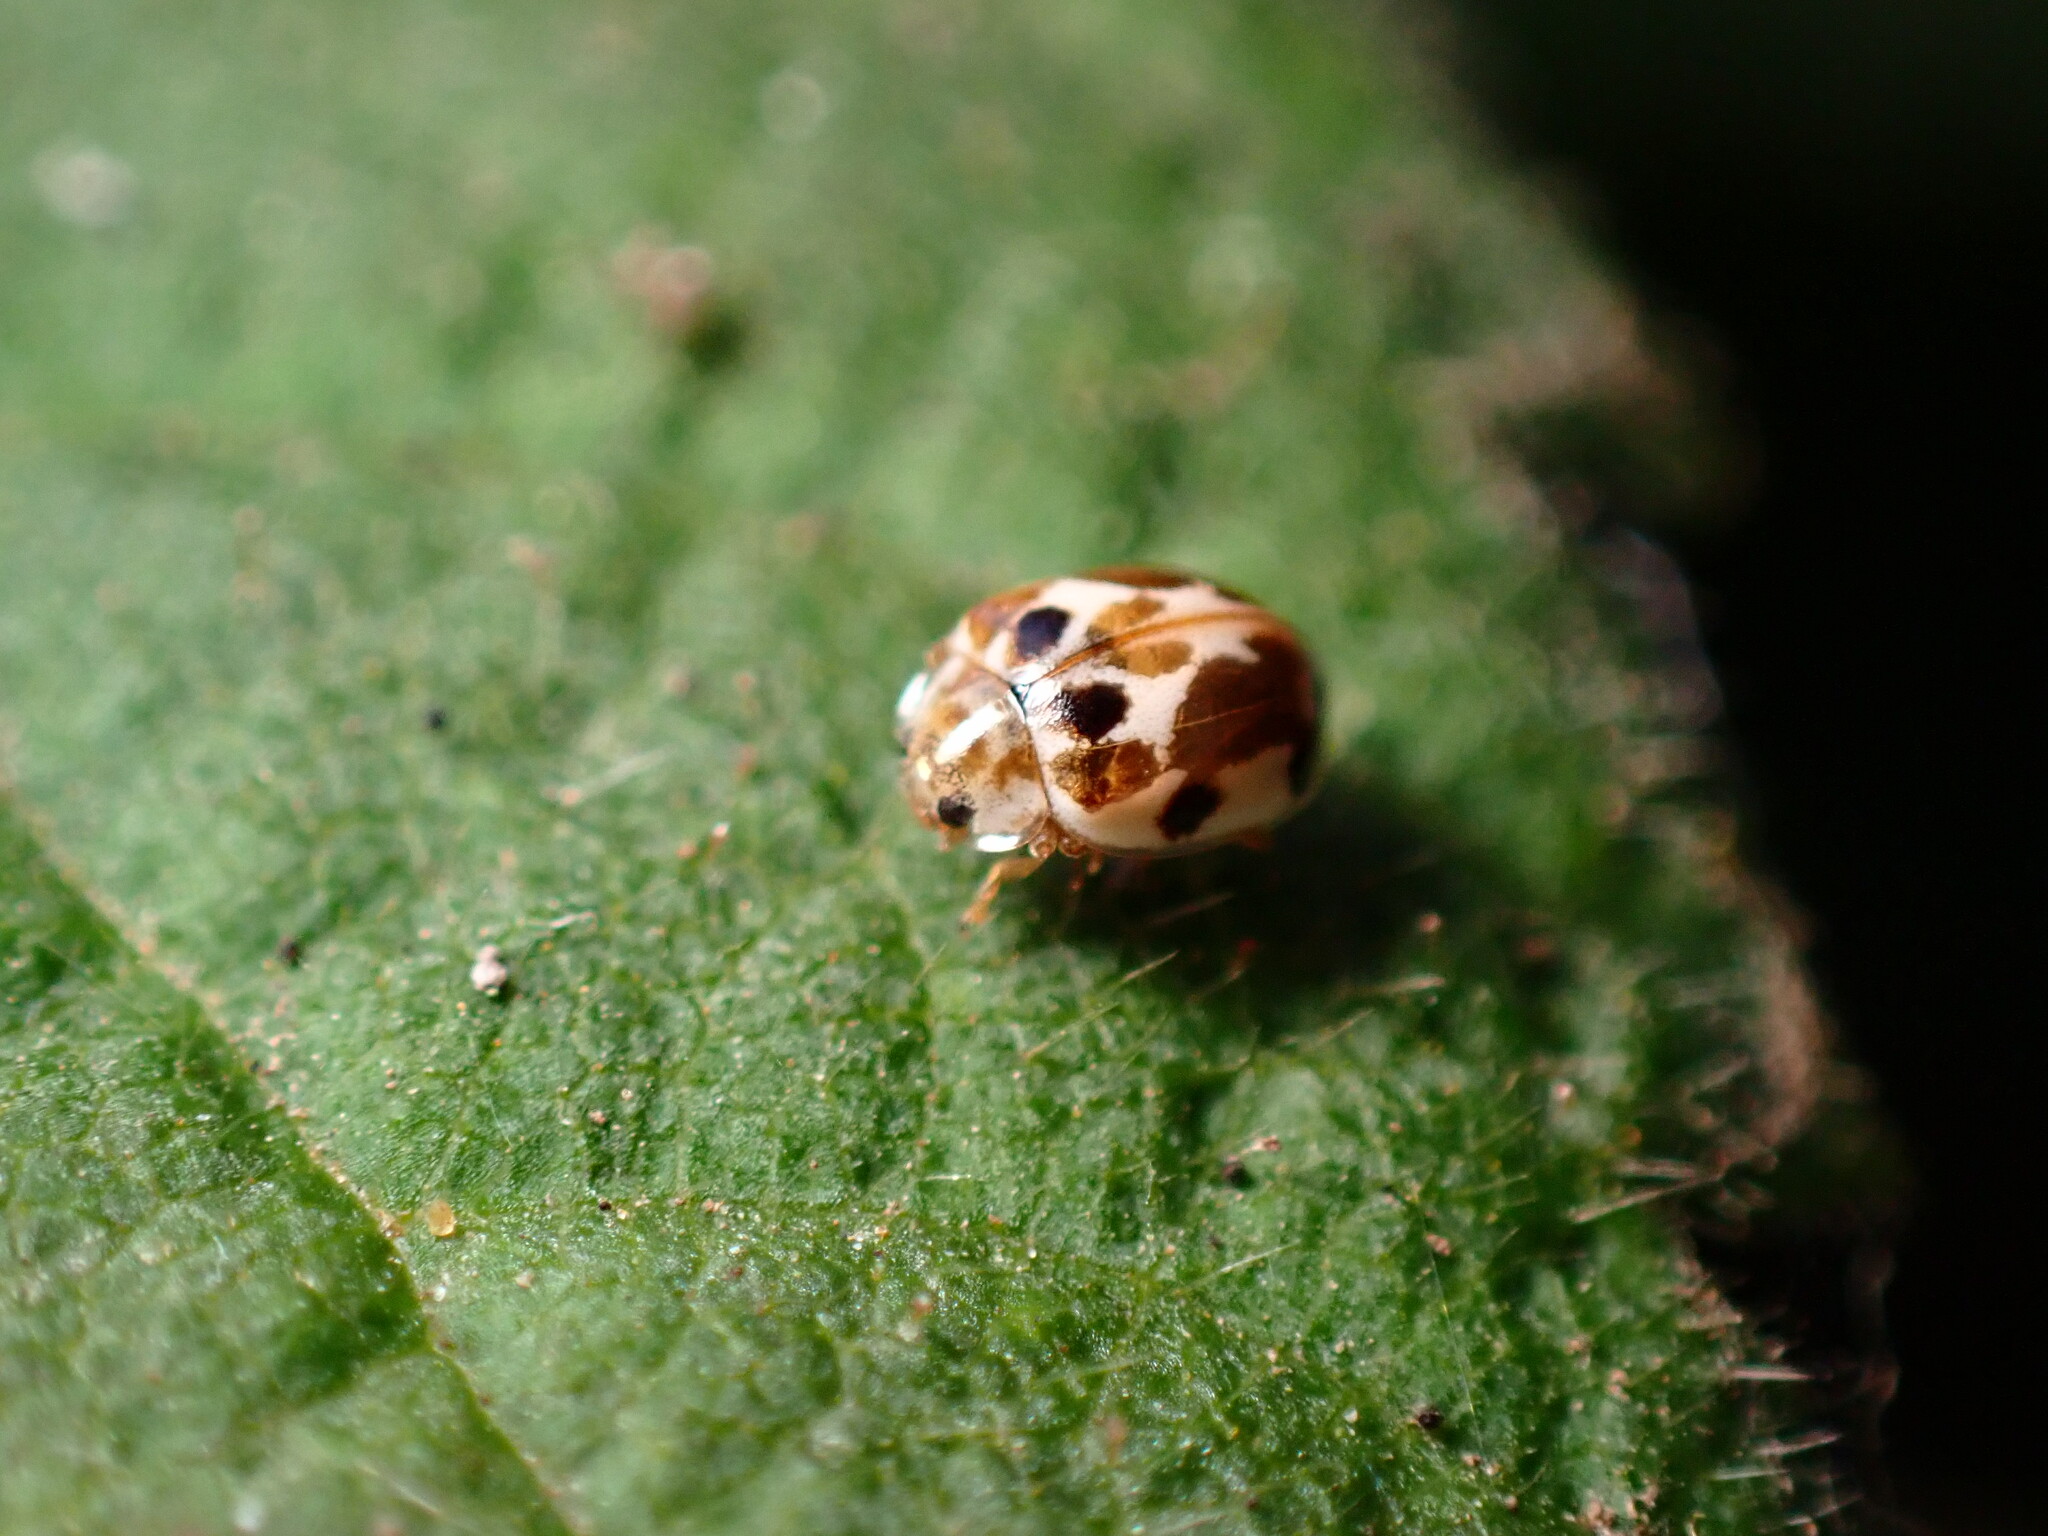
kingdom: Animalia
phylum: Arthropoda
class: Insecta
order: Coleoptera
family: Coccinellidae
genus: Psyllobora
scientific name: Psyllobora vigintimaculata
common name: Ladybird beetle
